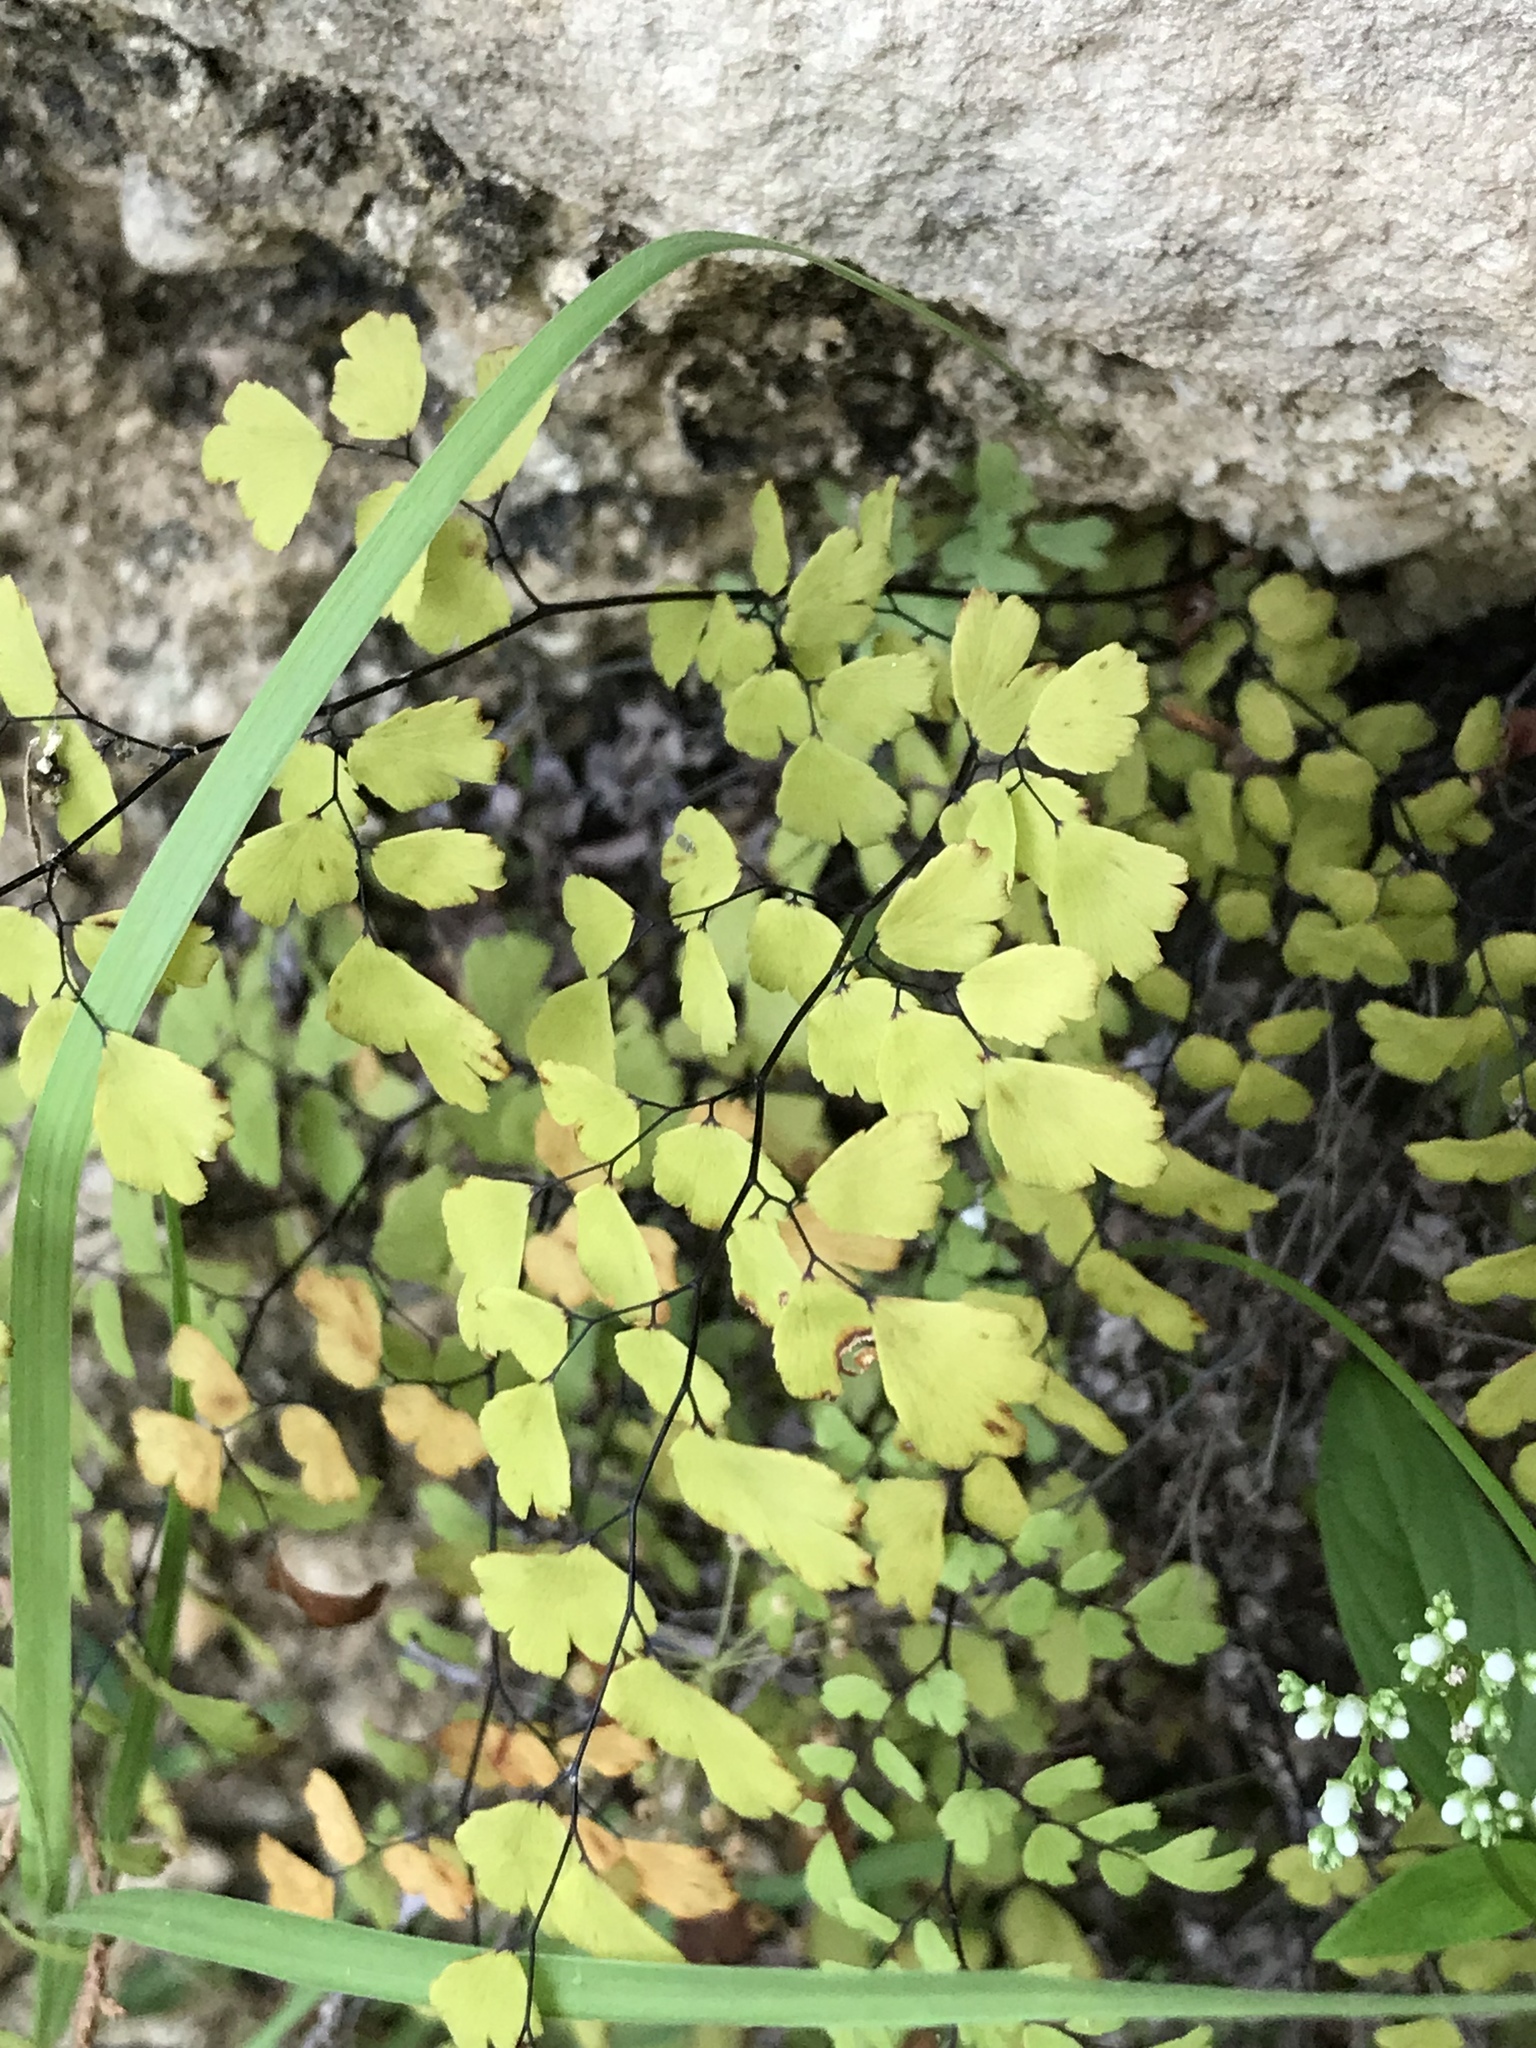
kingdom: Plantae
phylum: Tracheophyta
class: Polypodiopsida
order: Polypodiales
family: Pteridaceae
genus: Adiantum
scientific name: Adiantum capillus-veneris
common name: Maidenhair fern
